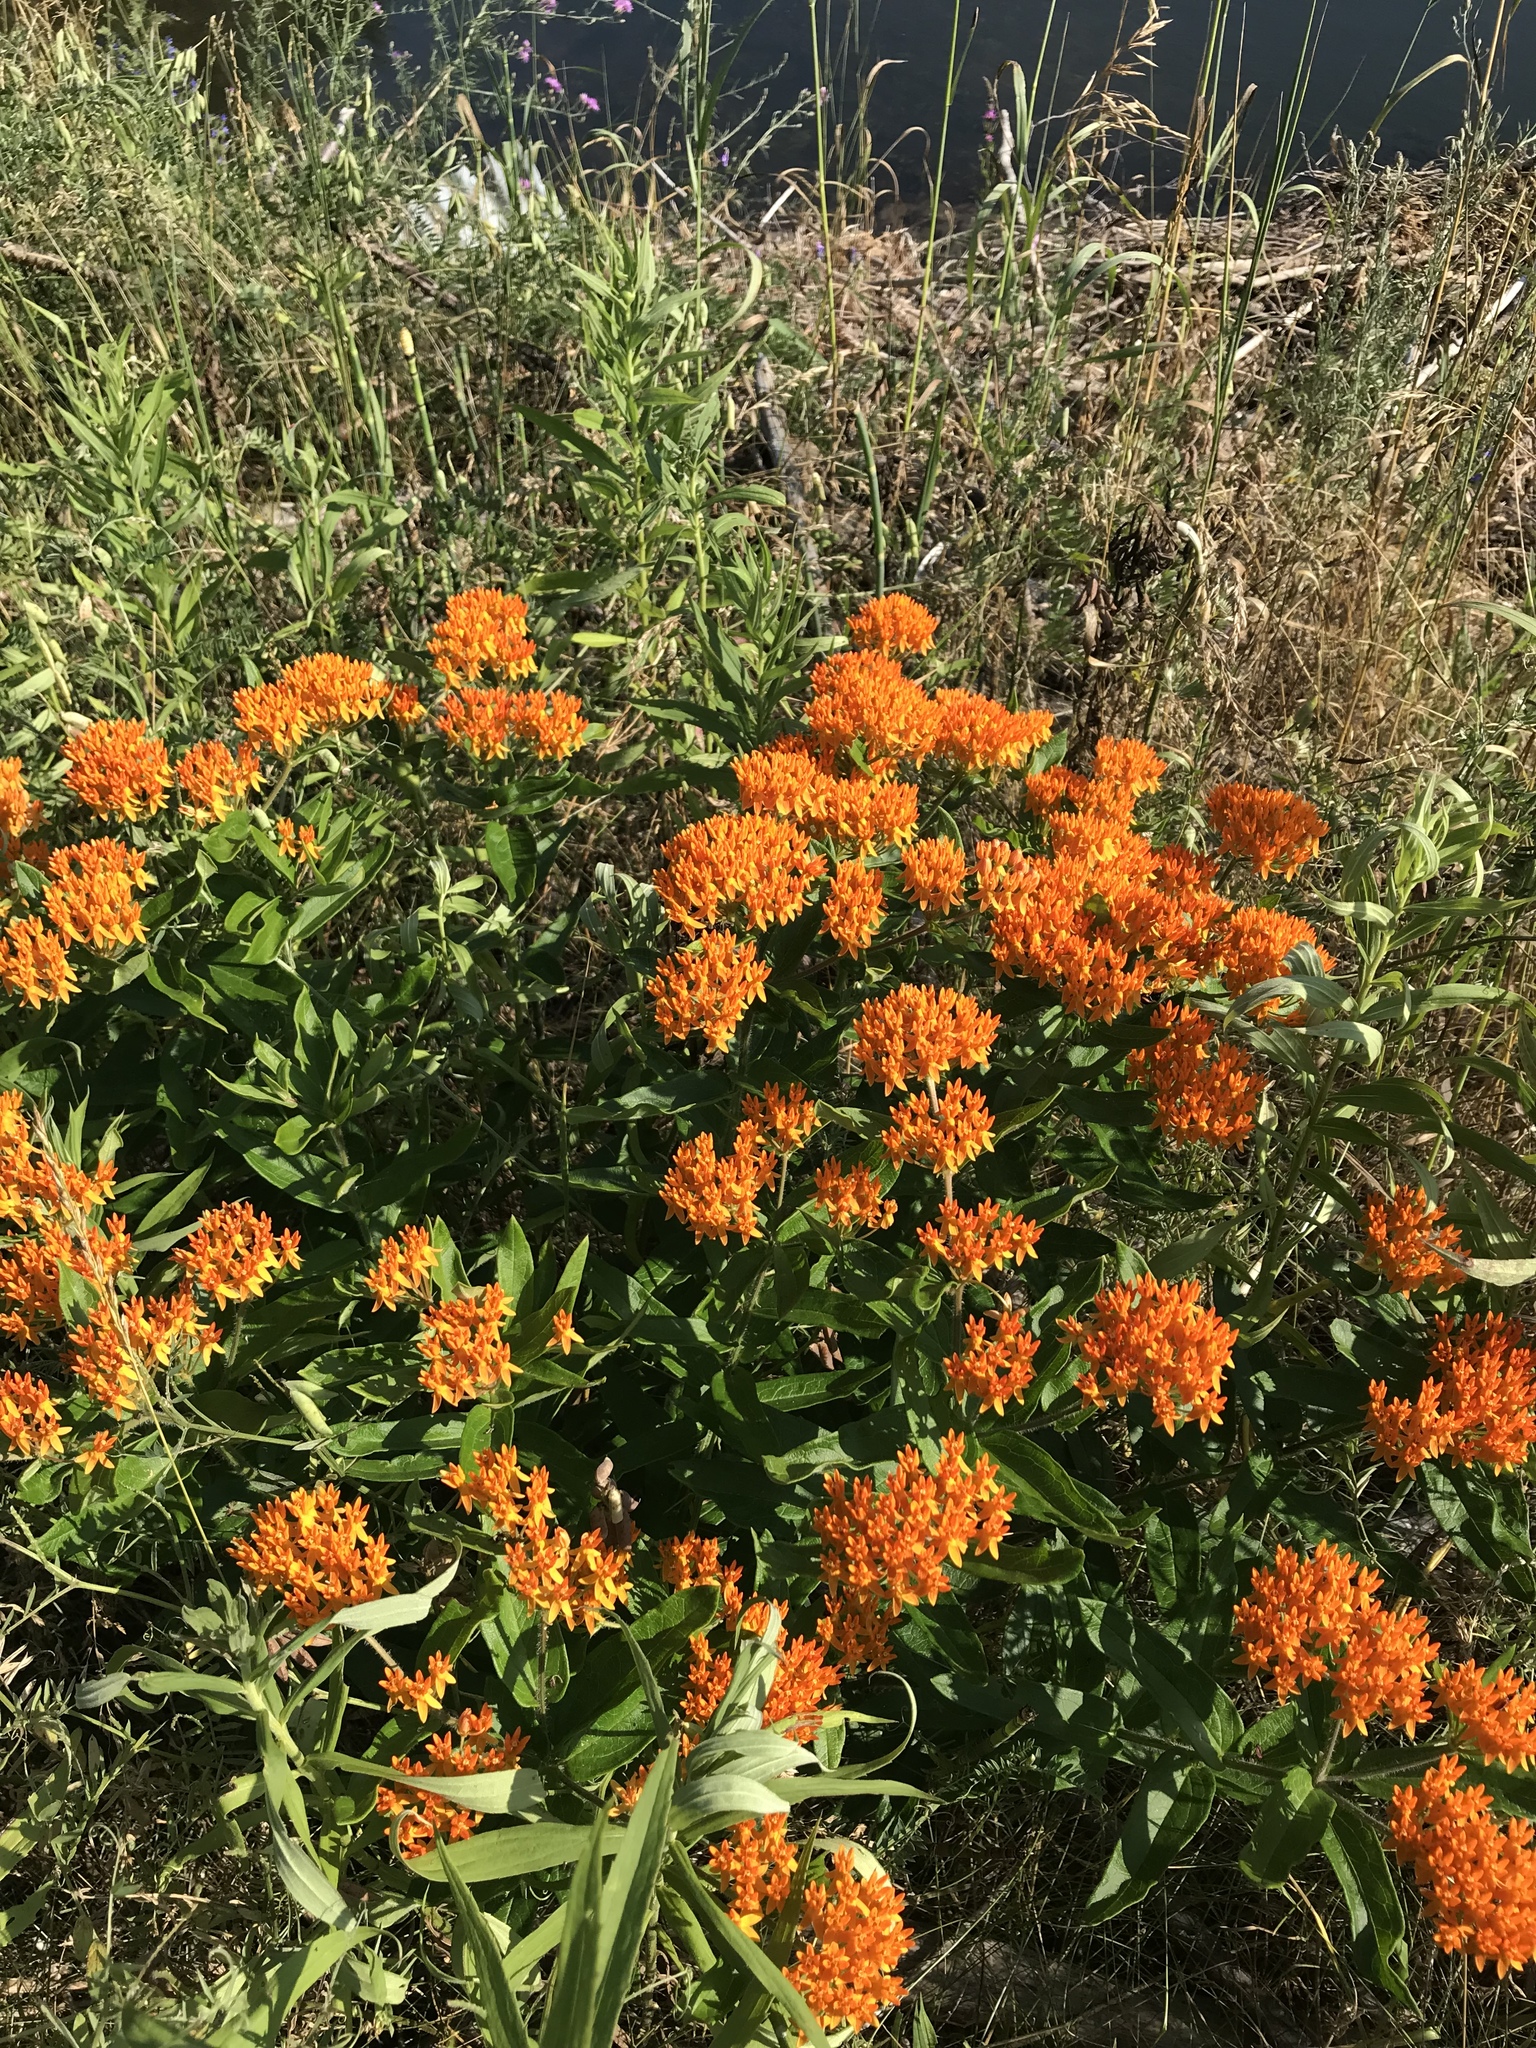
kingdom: Plantae
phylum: Tracheophyta
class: Magnoliopsida
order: Gentianales
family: Apocynaceae
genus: Asclepias
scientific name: Asclepias tuberosa
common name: Butterfly milkweed
